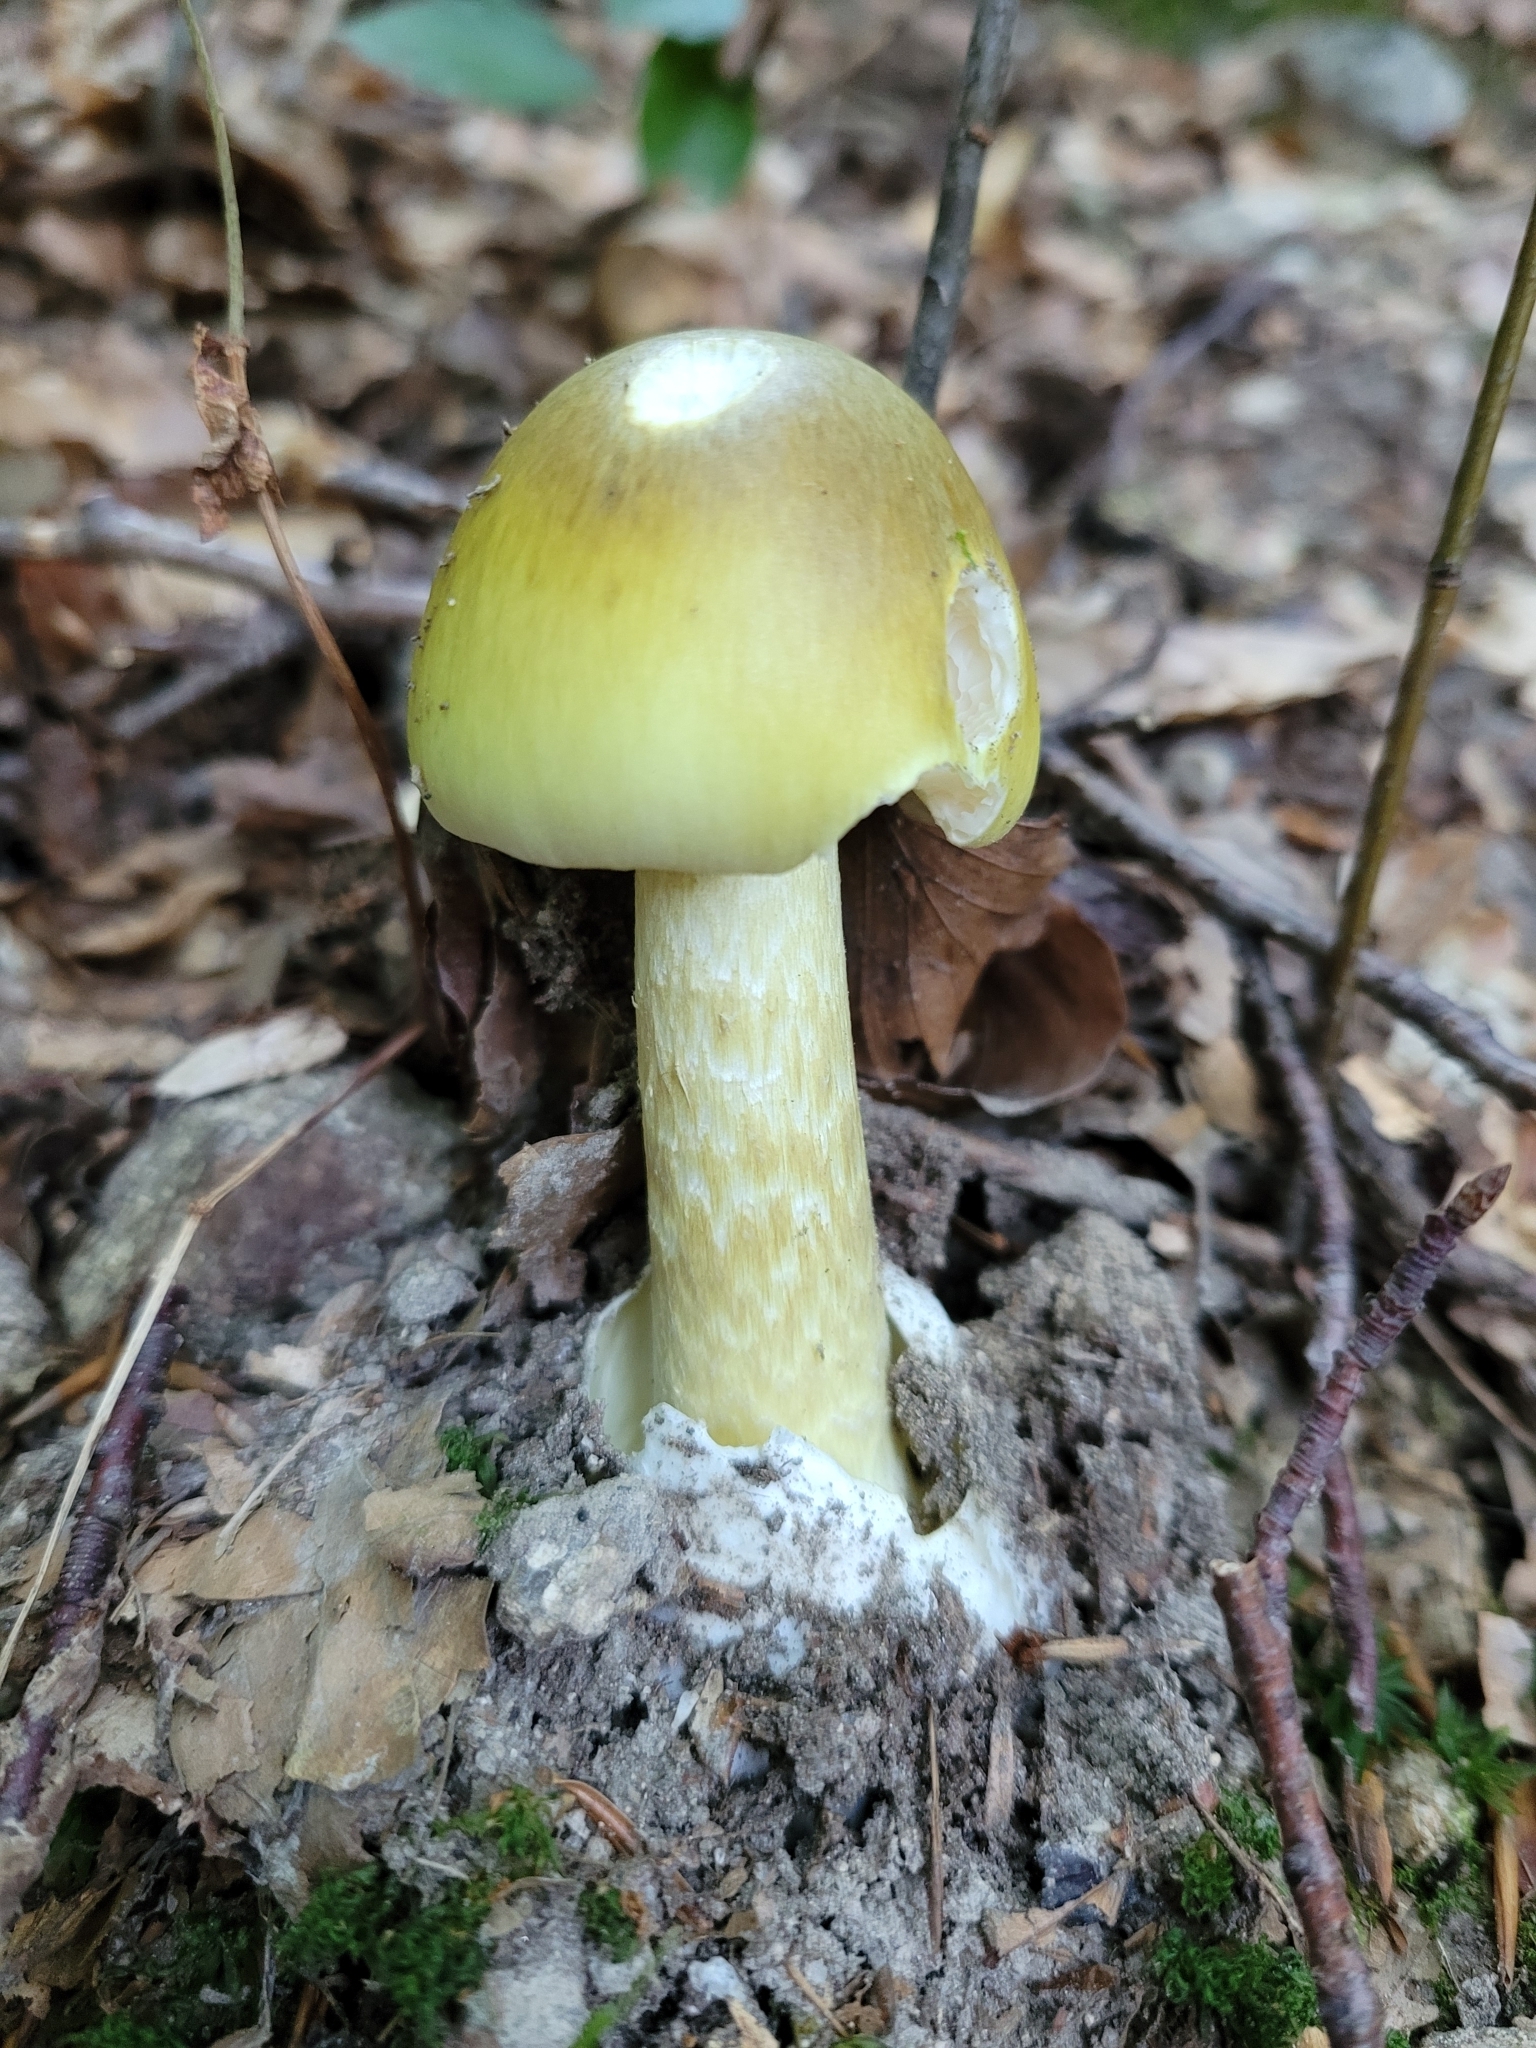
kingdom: Fungi
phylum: Basidiomycota
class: Agaricomycetes
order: Agaricales
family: Amanitaceae
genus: Amanita
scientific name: Amanita phalloides
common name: Death cap
